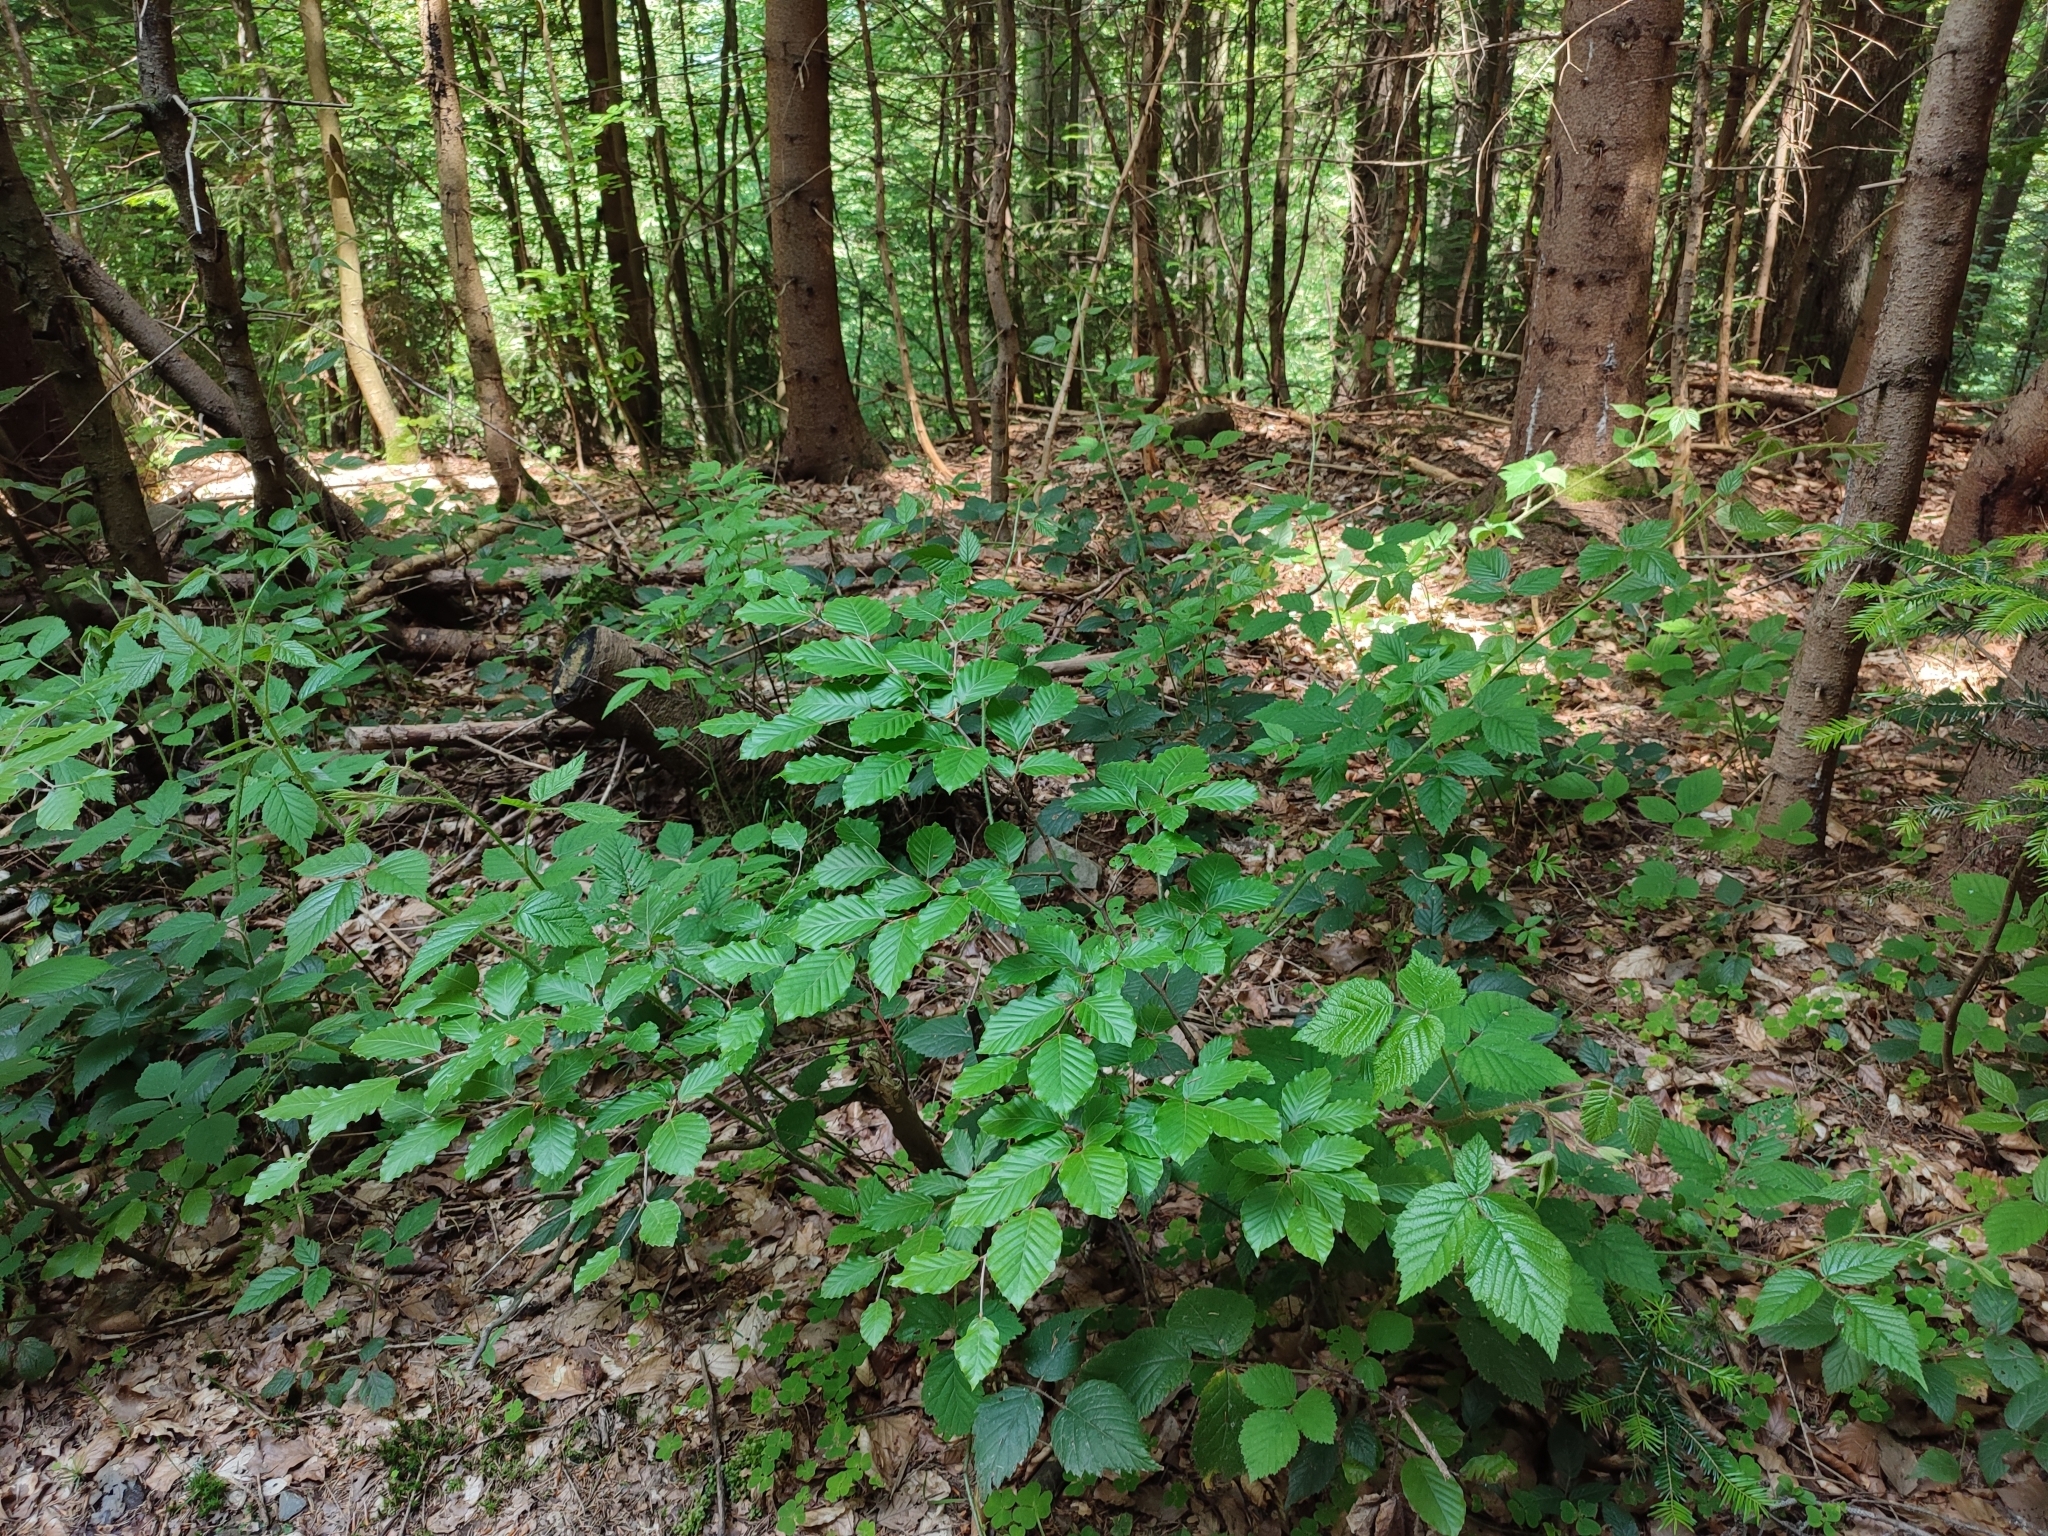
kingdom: Plantae
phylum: Tracheophyta
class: Magnoliopsida
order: Fagales
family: Fagaceae
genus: Fagus
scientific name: Fagus sylvatica
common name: Beech
